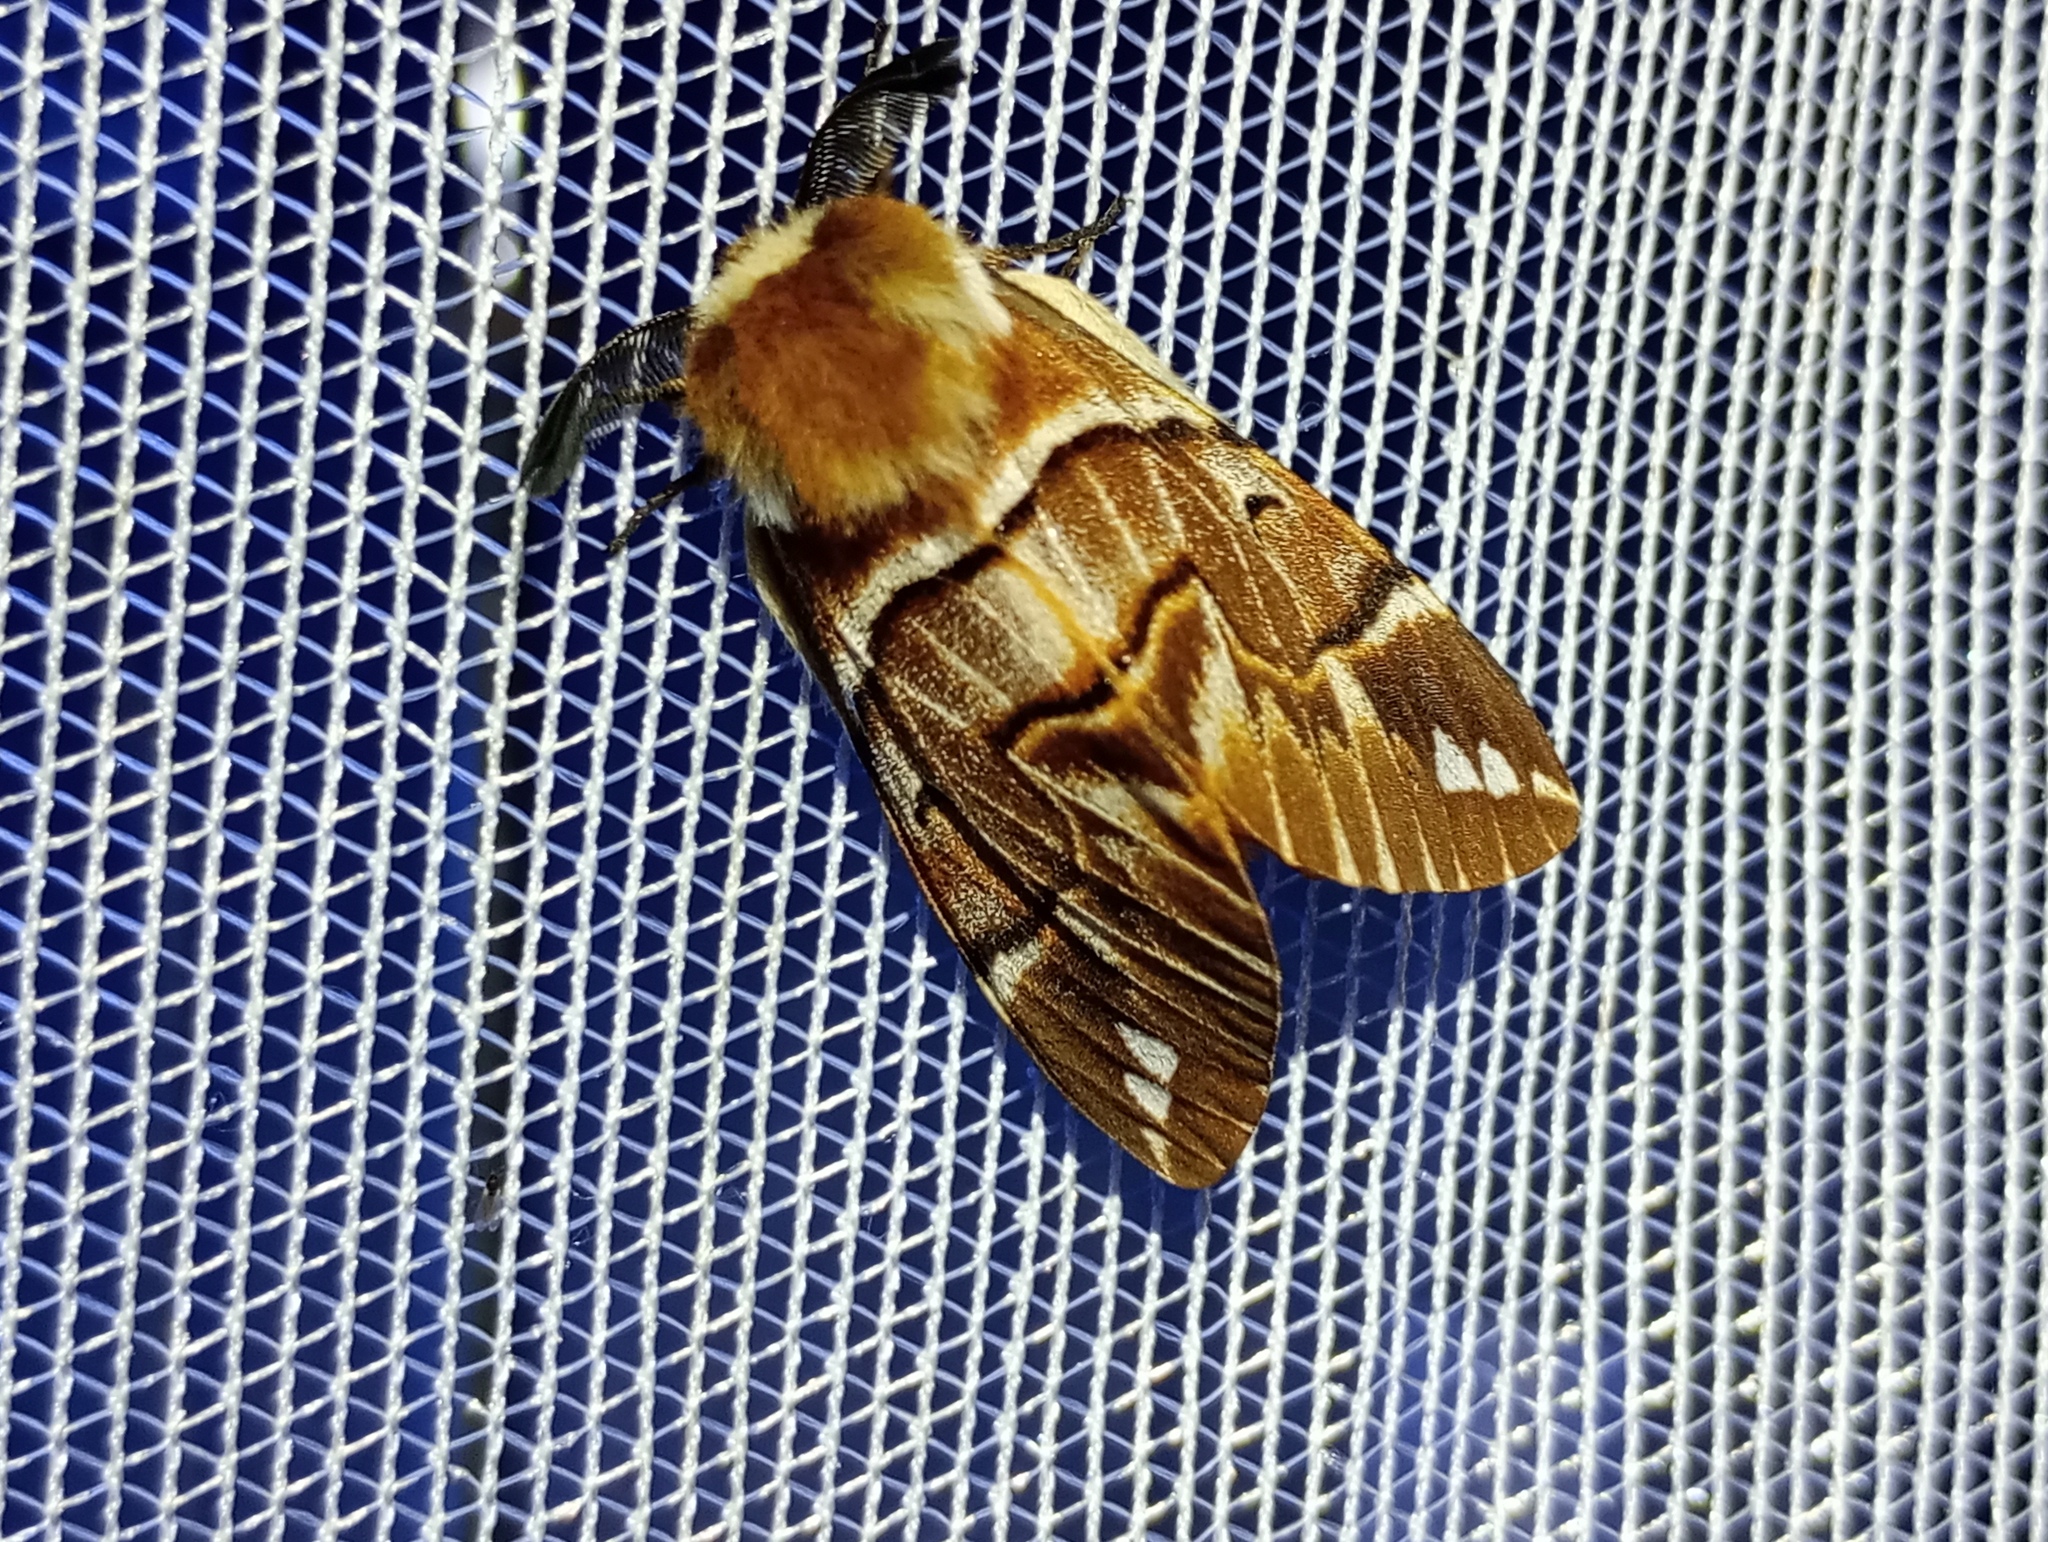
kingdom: Animalia
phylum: Arthropoda
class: Insecta
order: Lepidoptera
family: Endromidae
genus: Endromis
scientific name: Endromis versicolora
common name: Kentish glory
